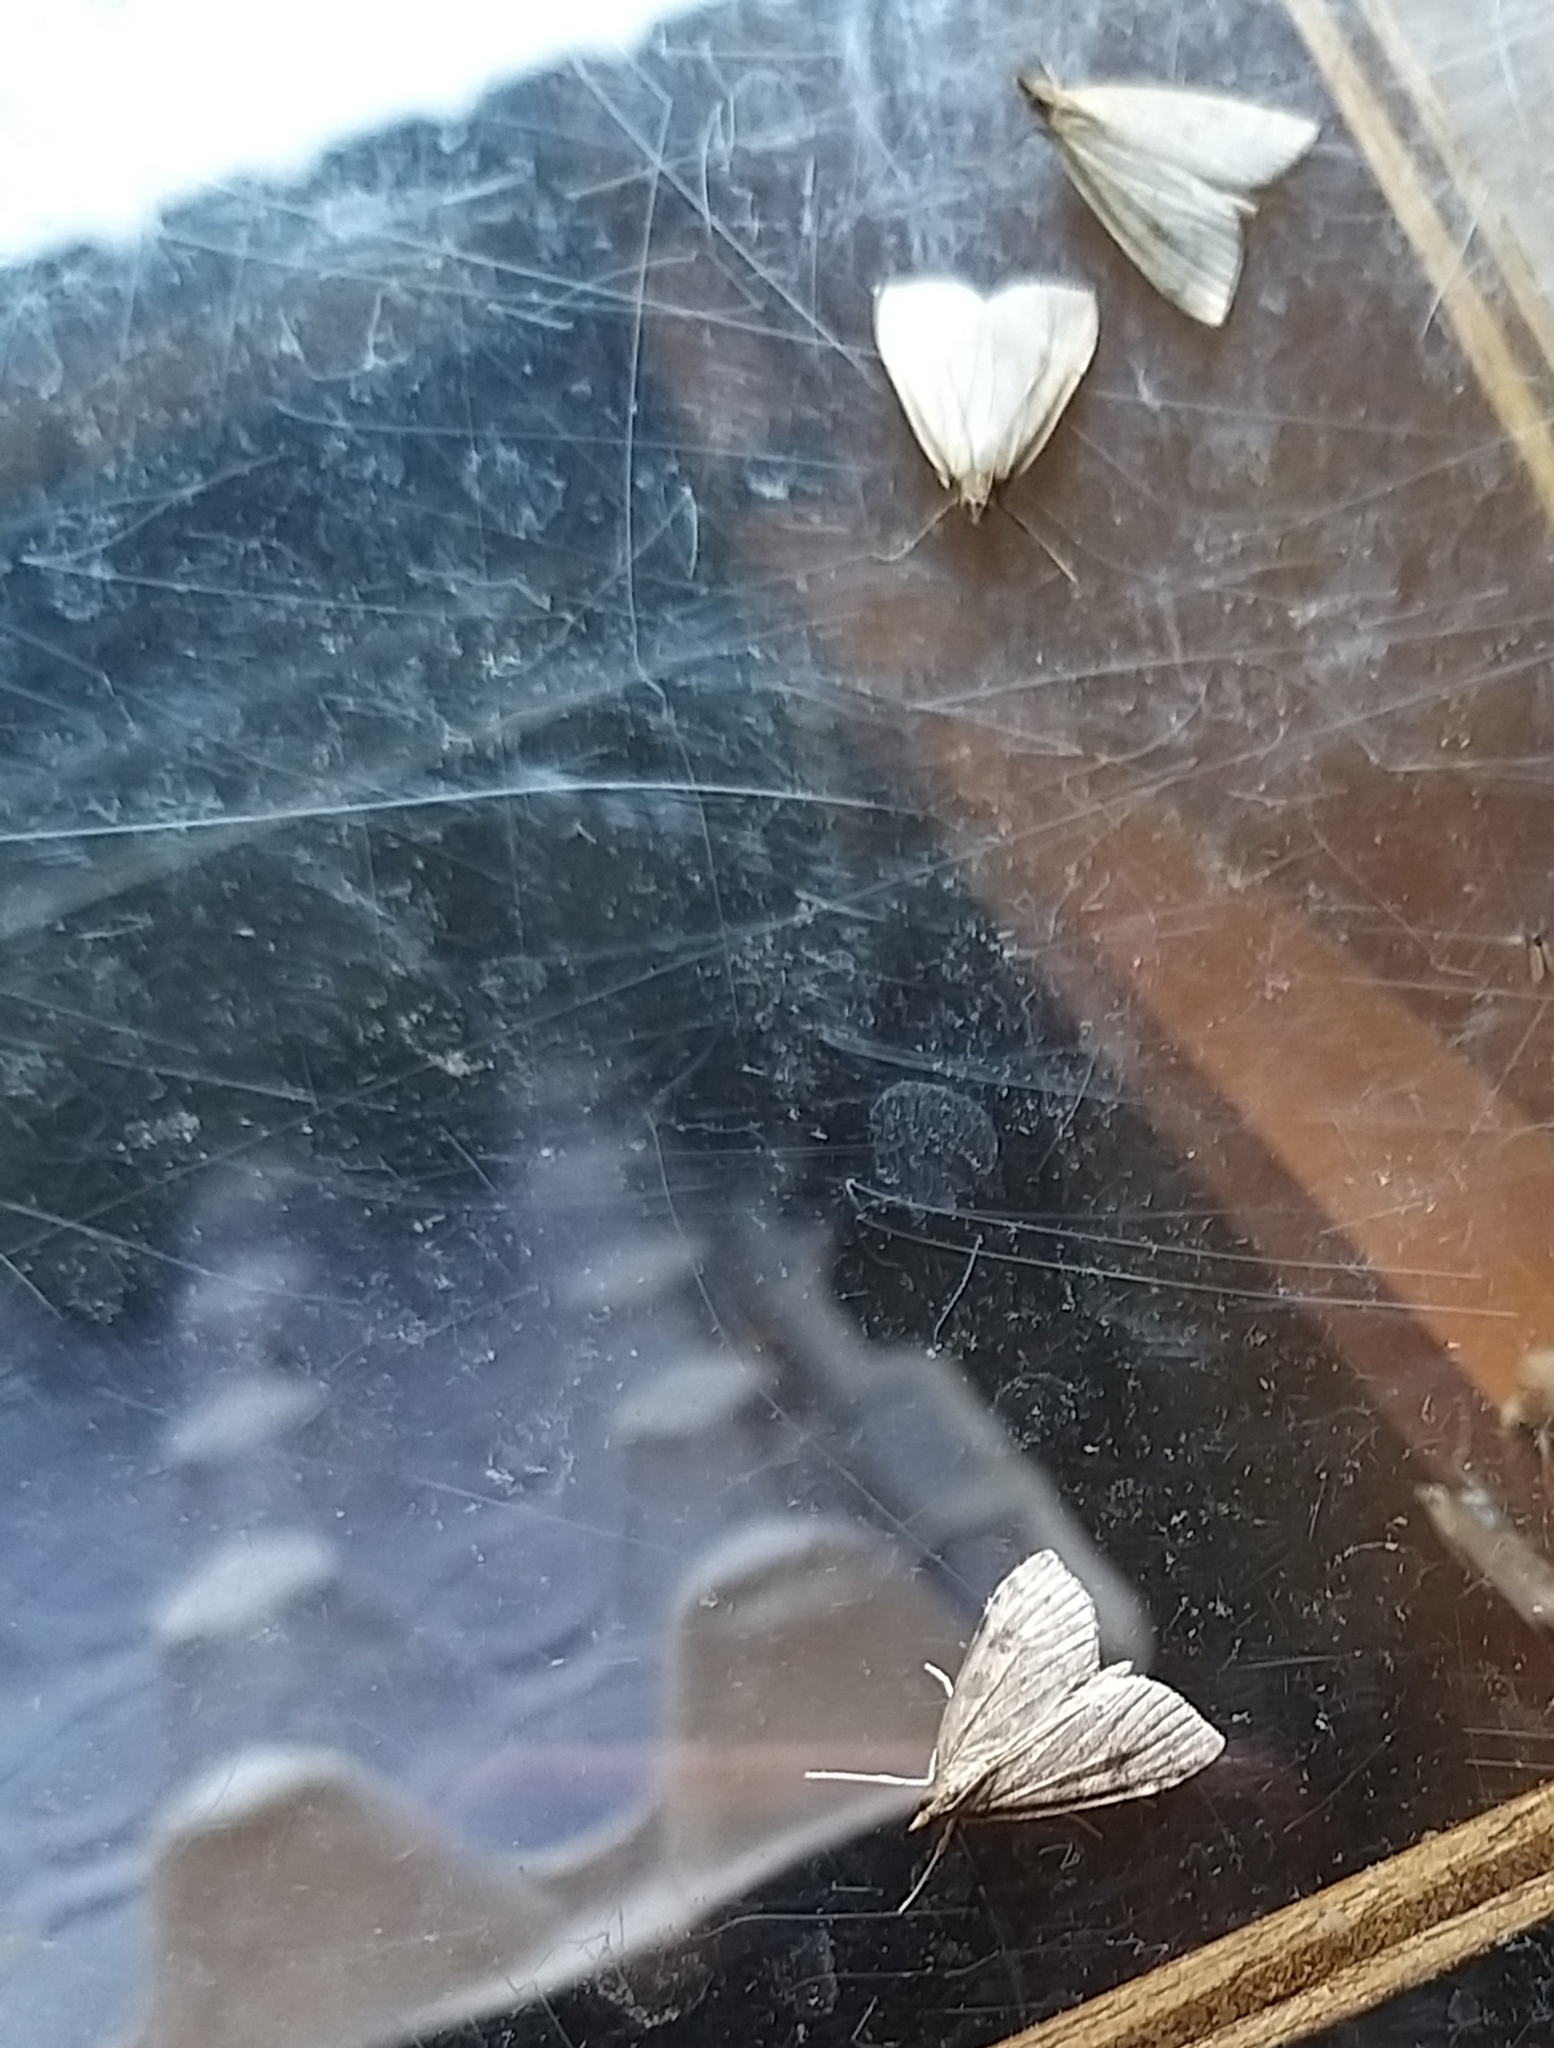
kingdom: Animalia
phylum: Arthropoda
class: Insecta
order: Lepidoptera
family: Crambidae
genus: Udea
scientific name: Udea lutealis
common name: Pale straw pearl
